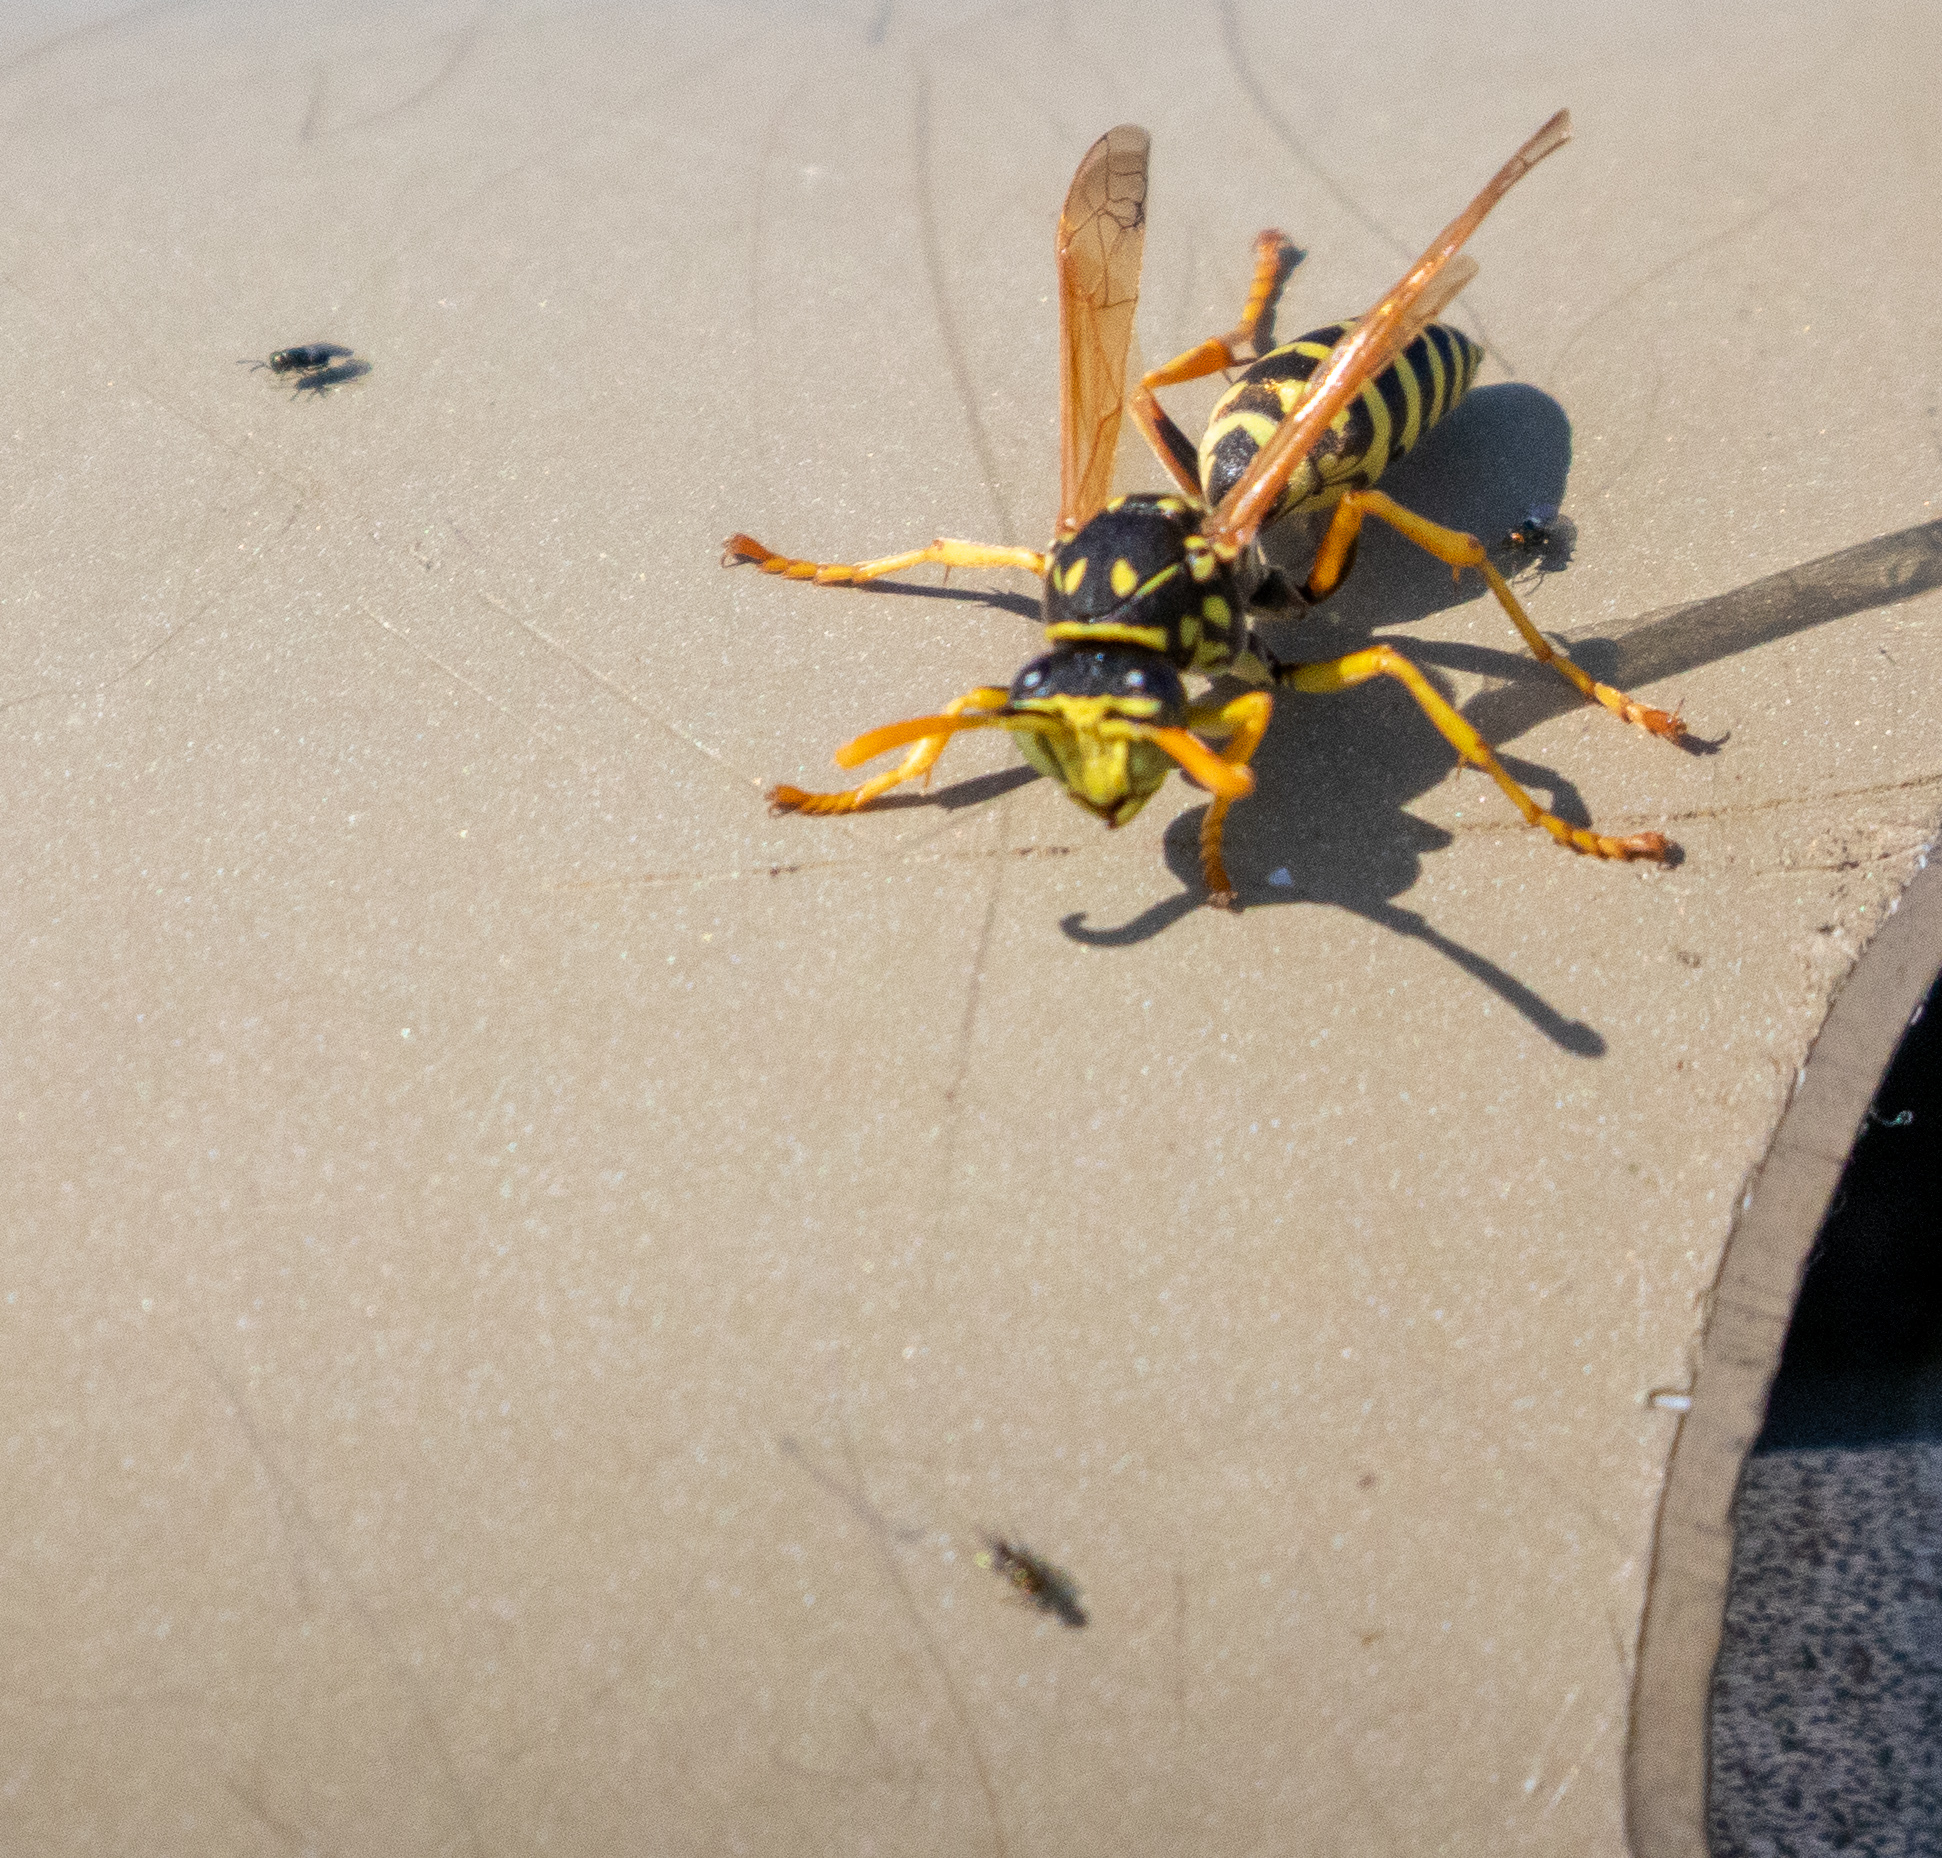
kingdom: Animalia
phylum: Arthropoda
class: Insecta
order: Hymenoptera
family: Eumenidae
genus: Polistes
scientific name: Polistes dominula
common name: Paper wasp
